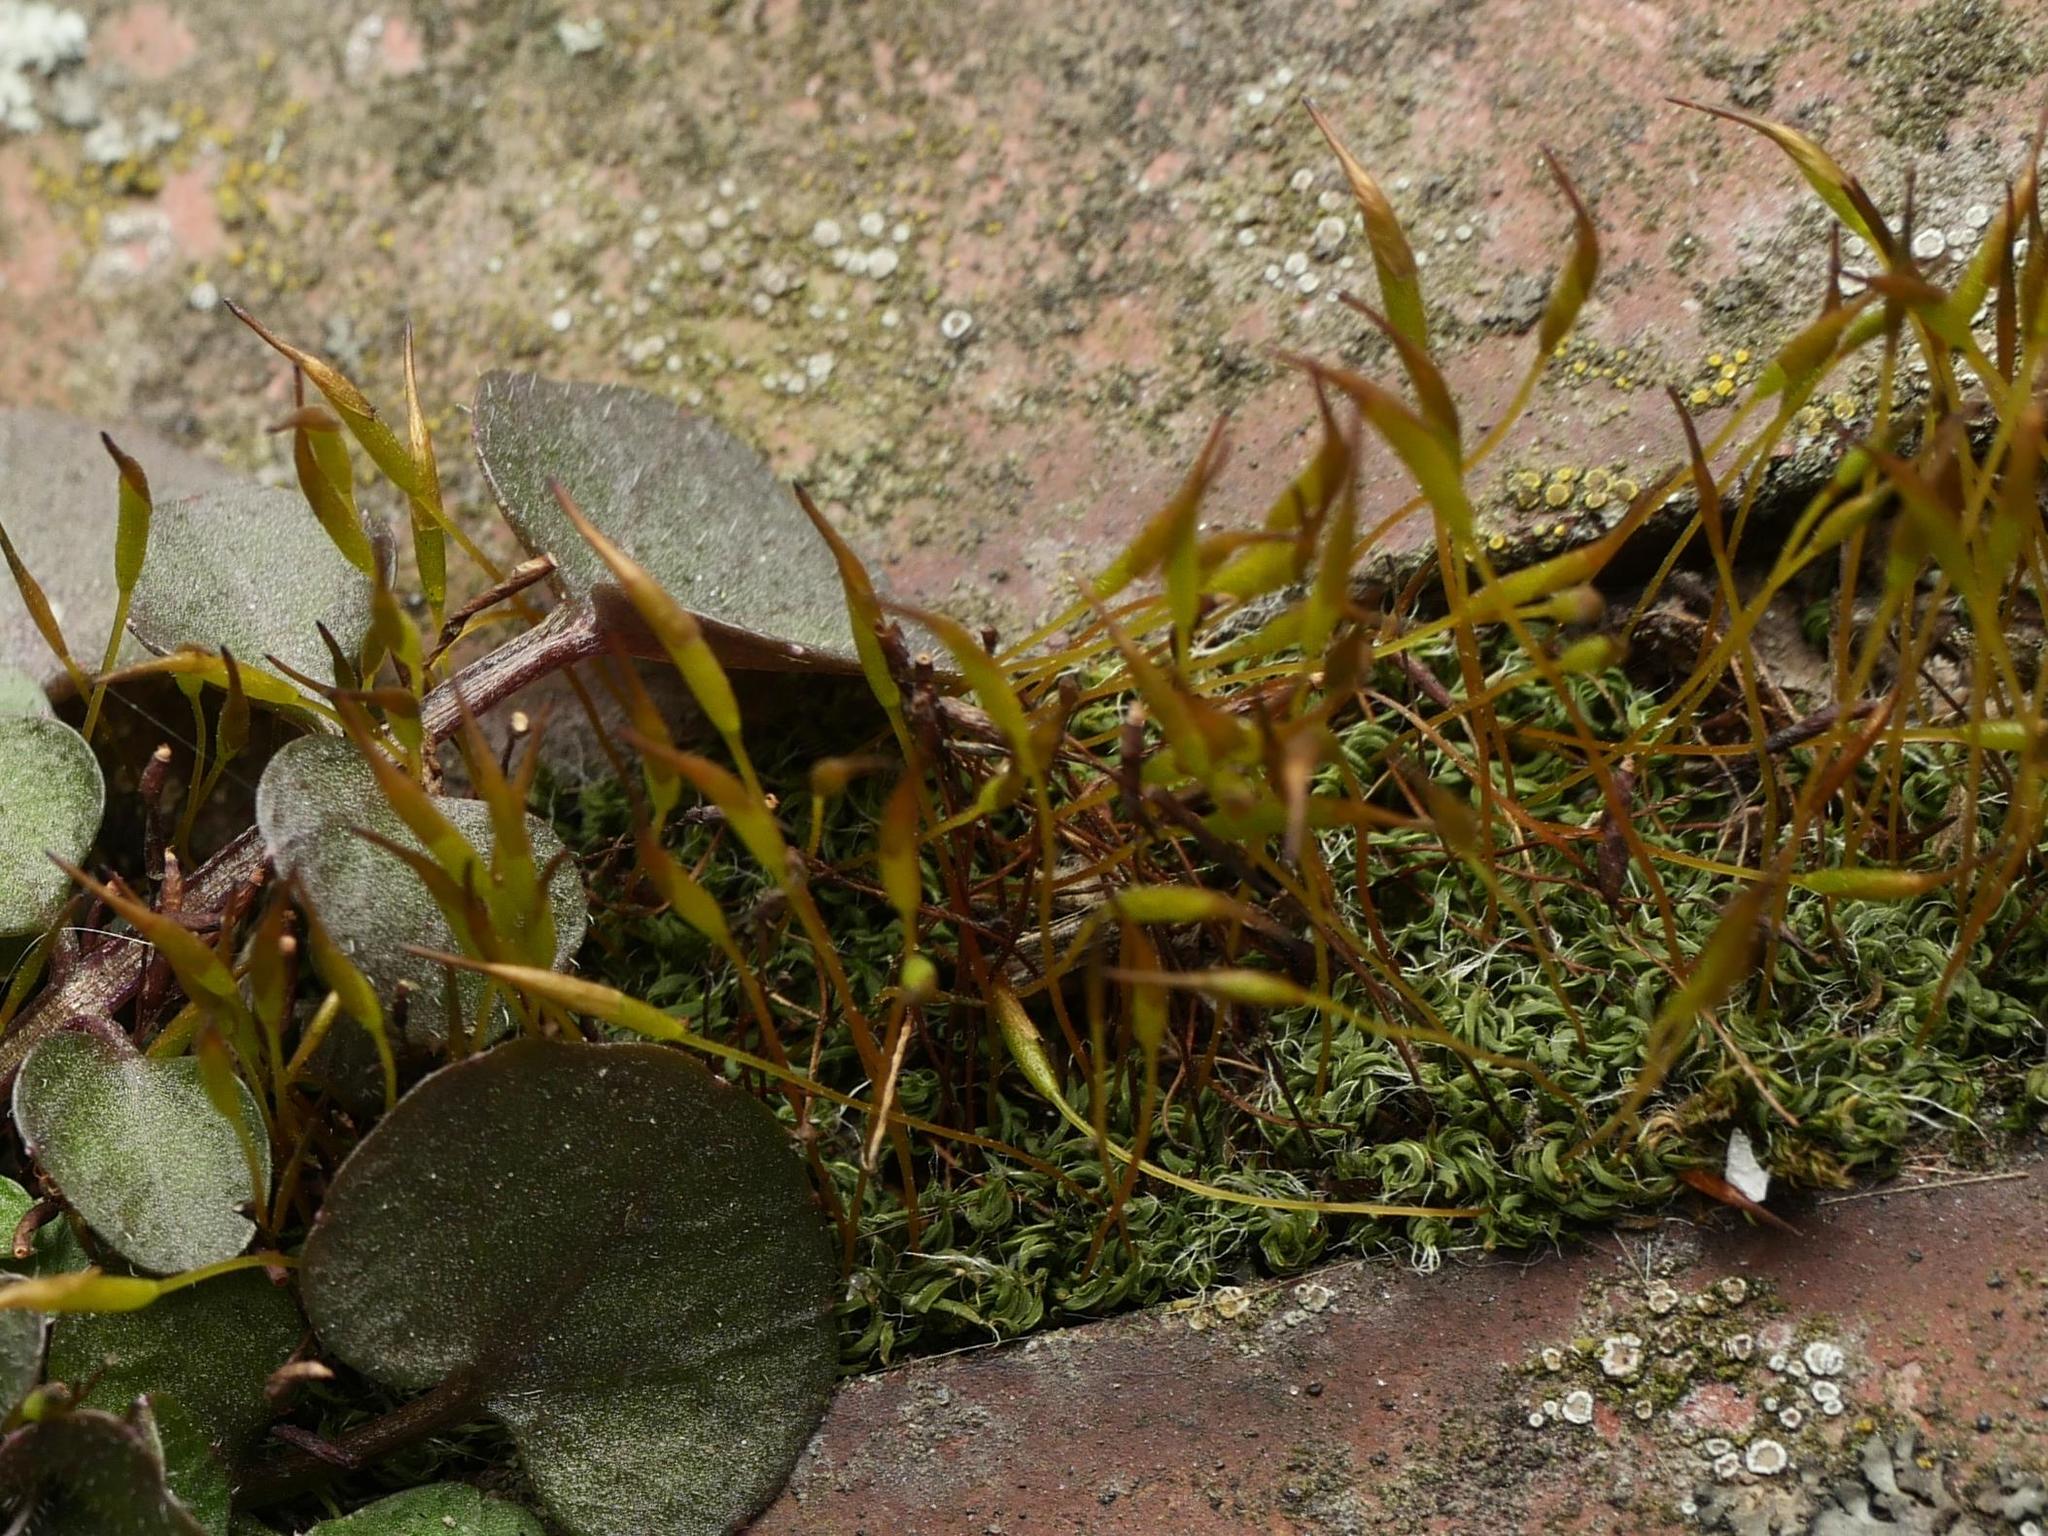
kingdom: Plantae
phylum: Bryophyta
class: Bryopsida
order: Pottiales
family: Pottiaceae
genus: Tortula
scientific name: Tortula muralis
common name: Wall screw-moss
